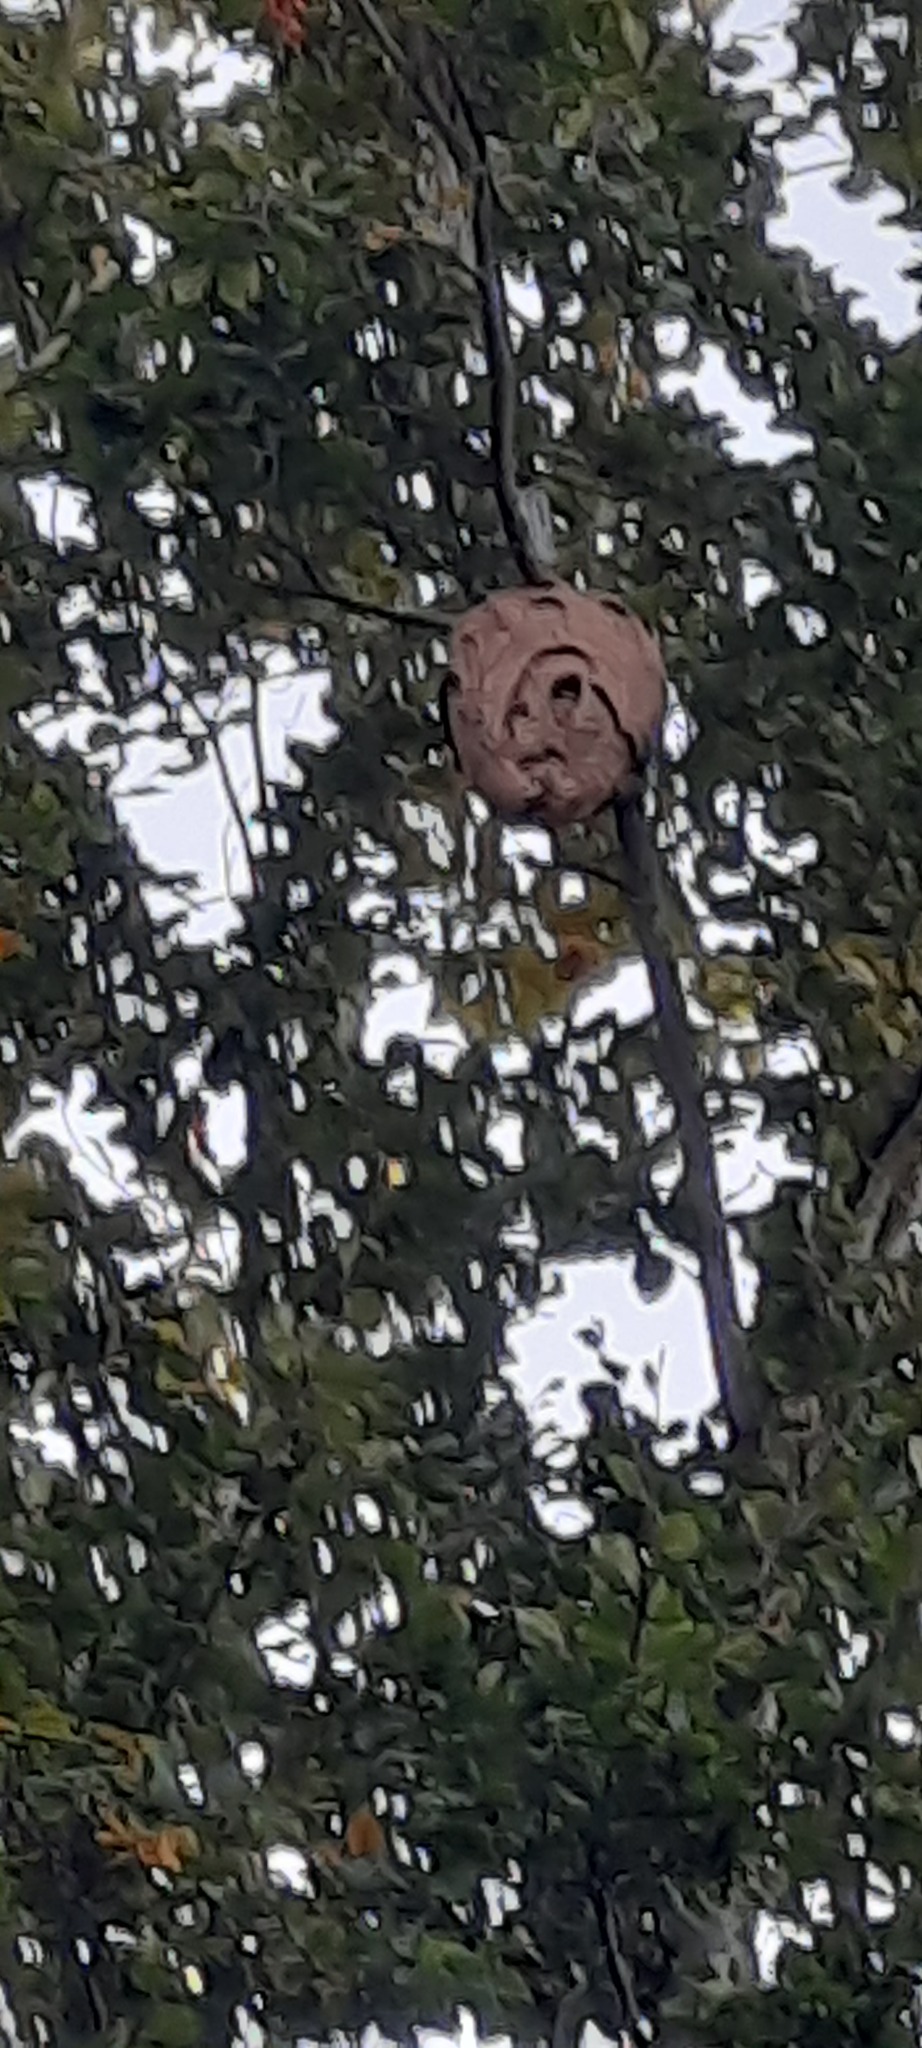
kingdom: Animalia
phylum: Arthropoda
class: Insecta
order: Hymenoptera
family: Vespidae
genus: Vespa
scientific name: Vespa velutina
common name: Asian hornet
